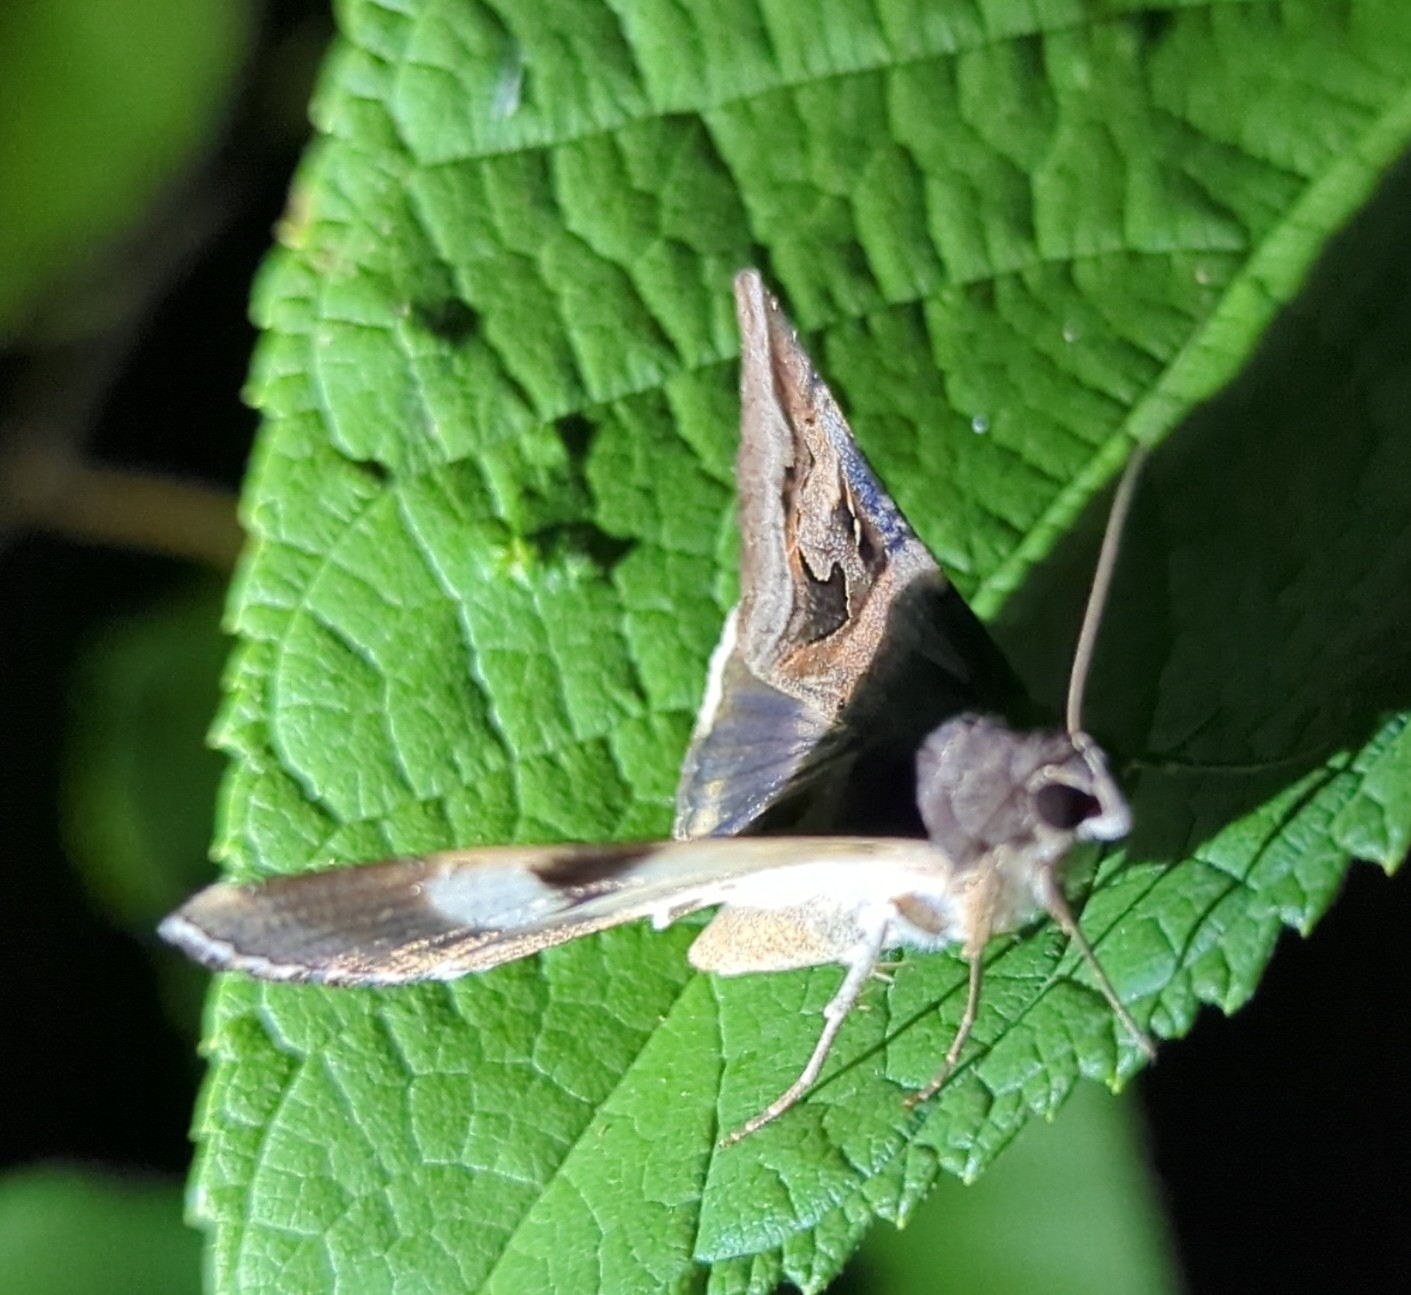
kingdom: Animalia
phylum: Arthropoda
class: Insecta
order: Lepidoptera
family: Erebidae
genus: Melipotis
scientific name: Melipotis indomita
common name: Moth
